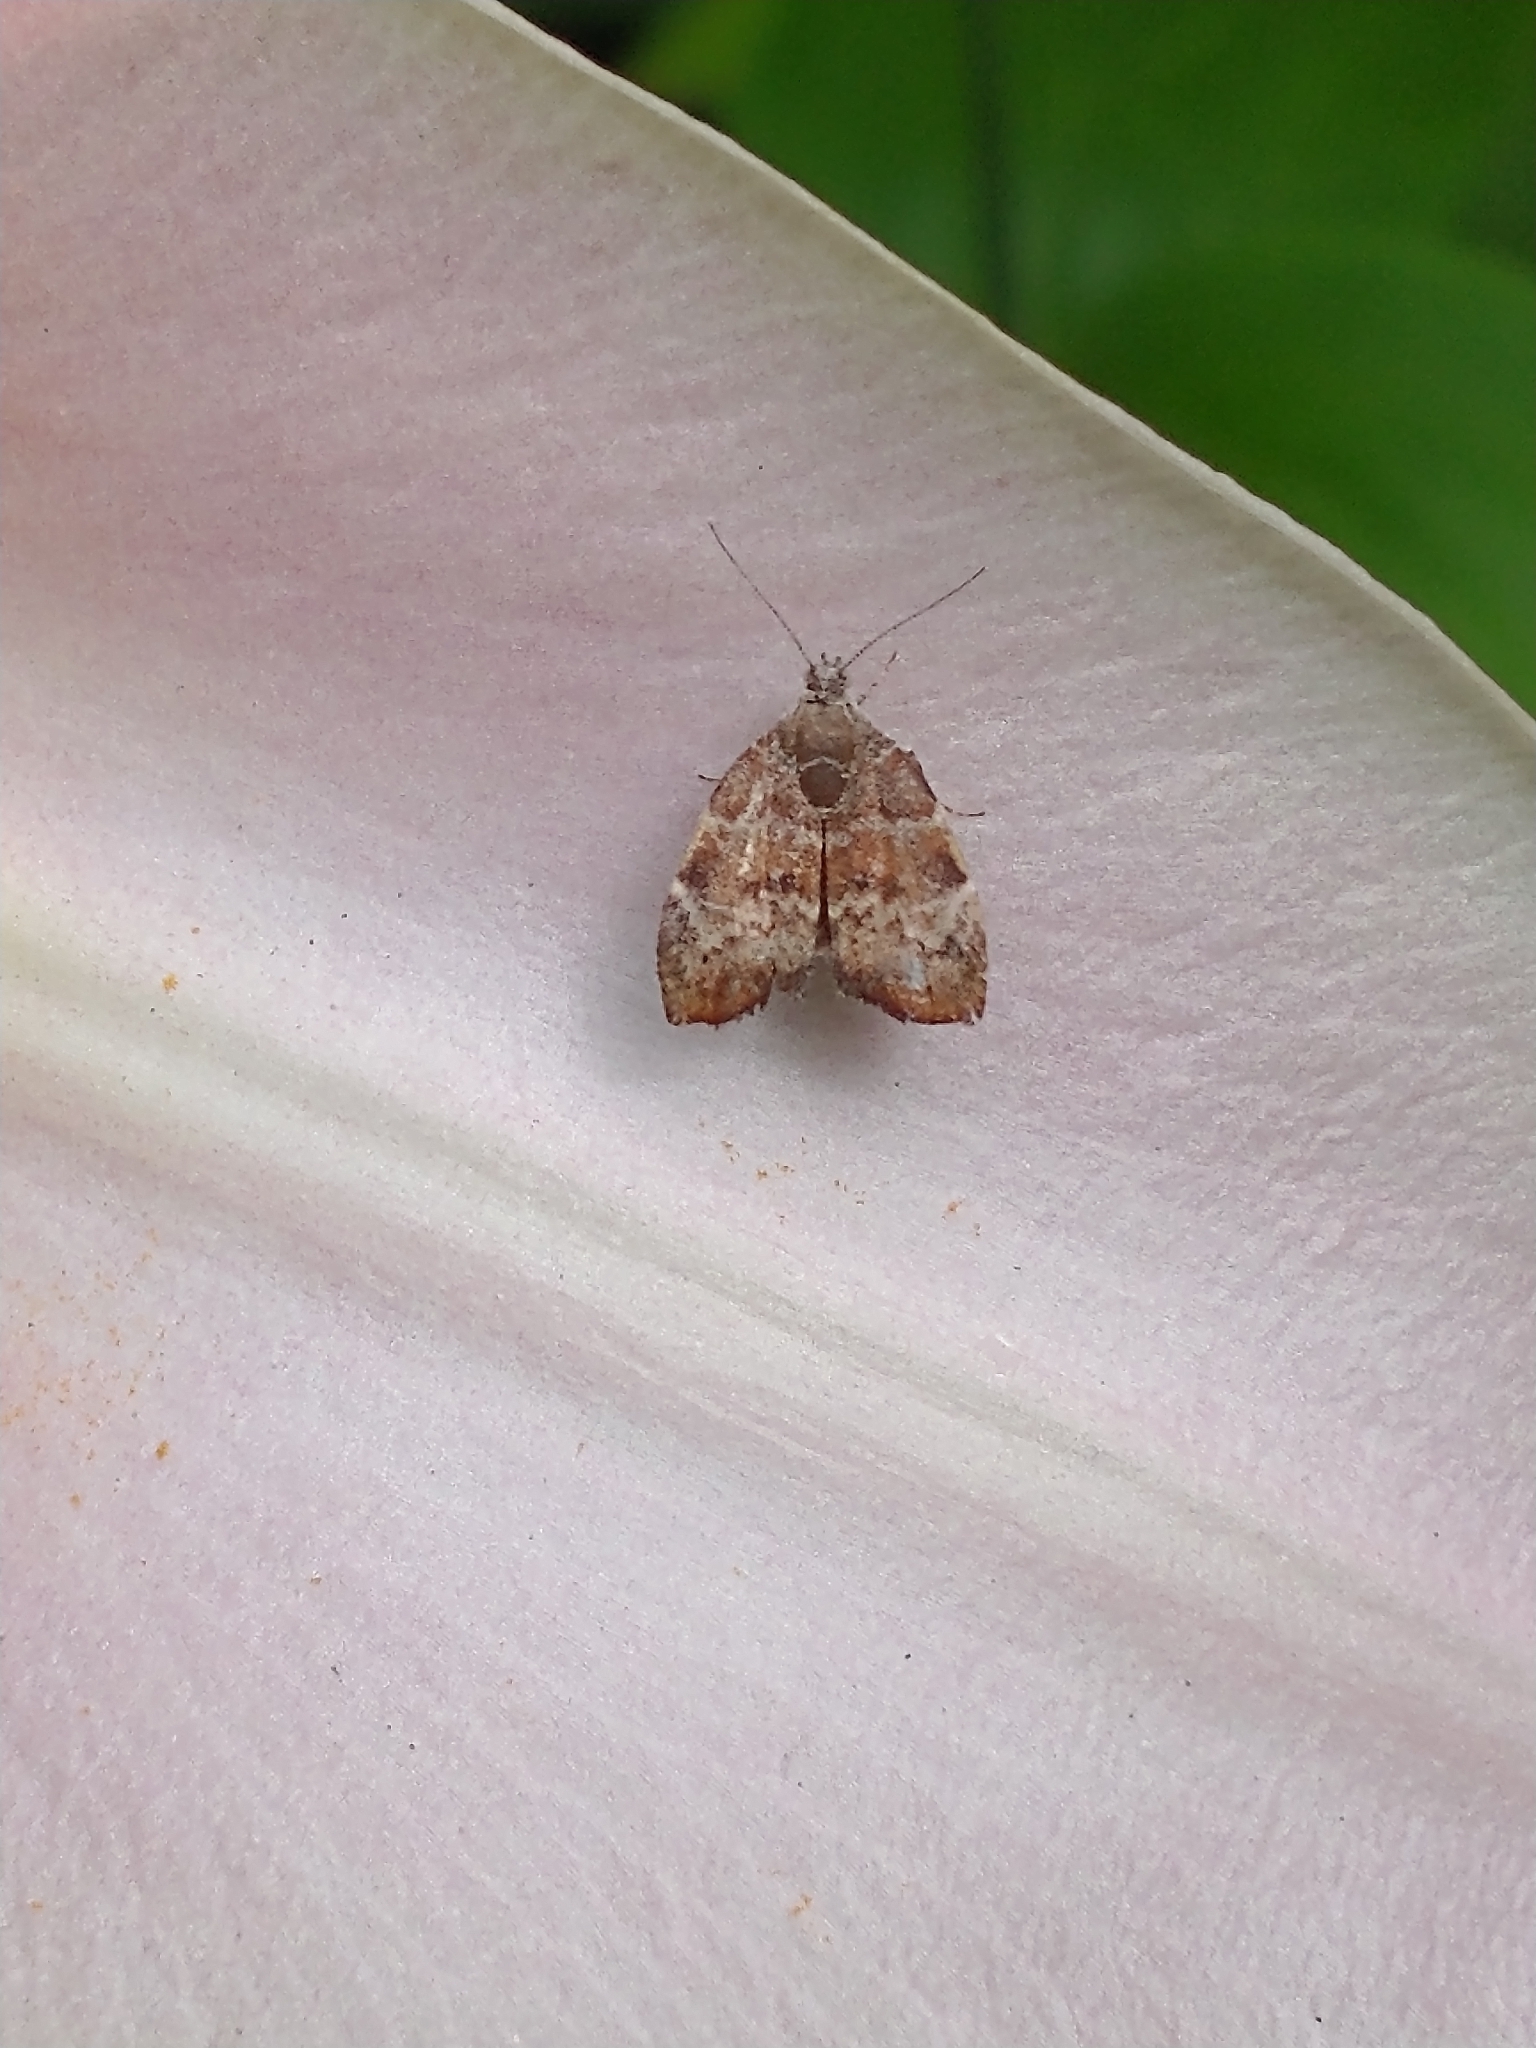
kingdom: Animalia
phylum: Arthropoda
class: Insecta
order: Lepidoptera
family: Choreutidae
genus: Anthophila
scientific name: Anthophila nemorana
